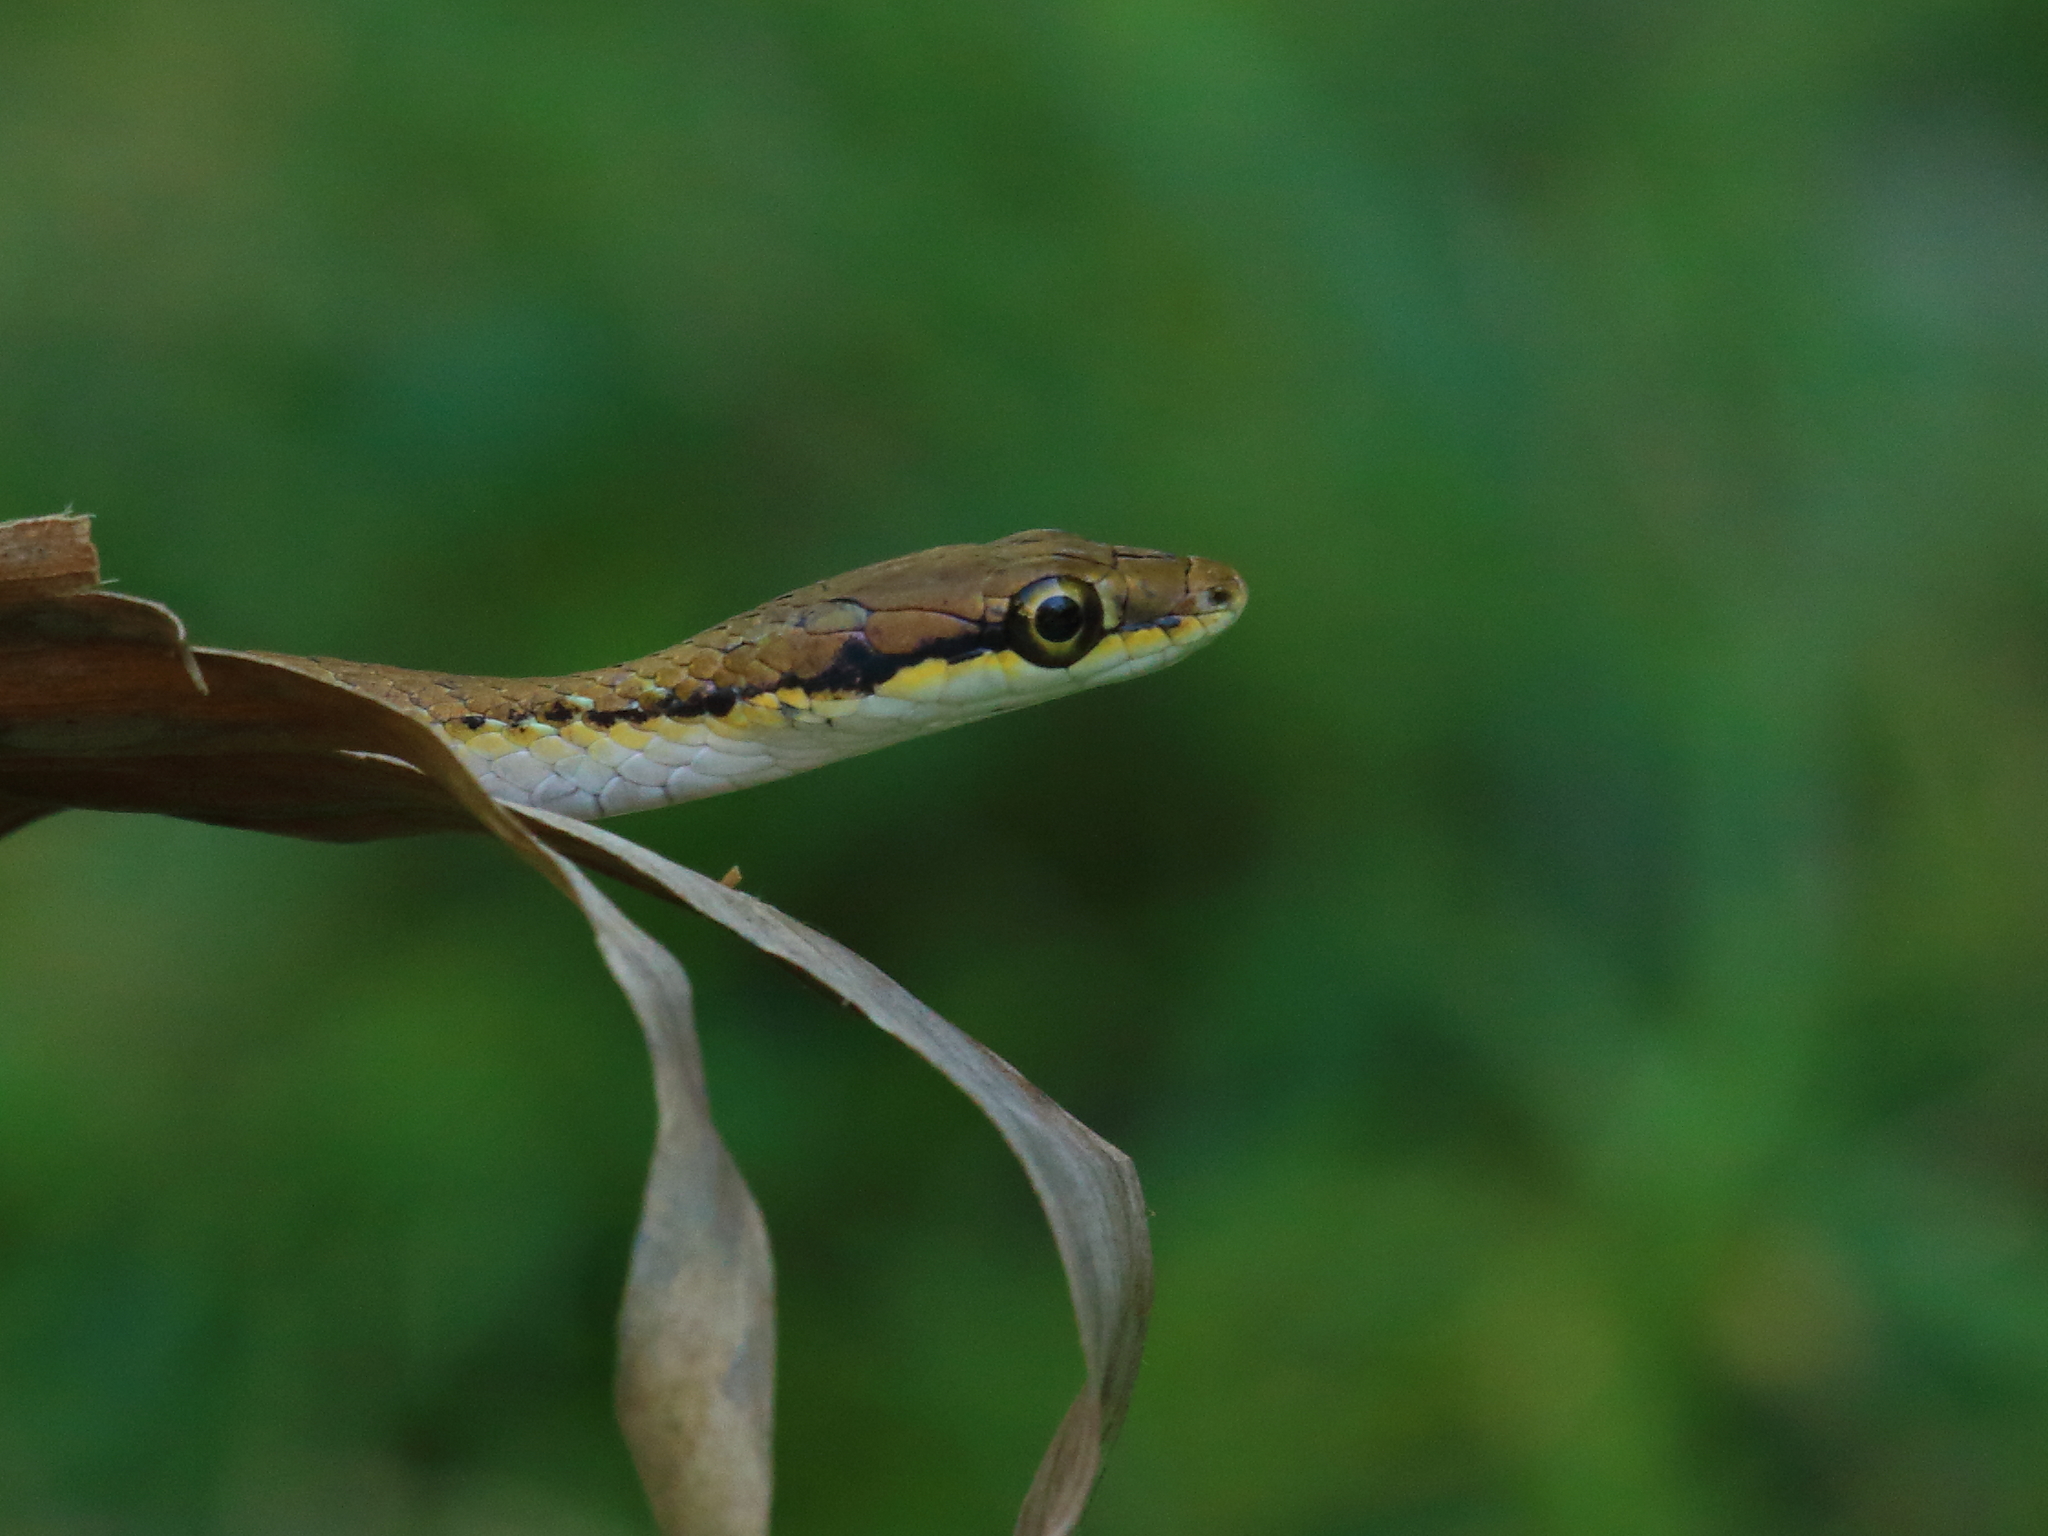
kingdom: Animalia
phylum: Chordata
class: Squamata
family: Colubridae
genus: Leptophis
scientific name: Leptophis stimsoni
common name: Gray lora
